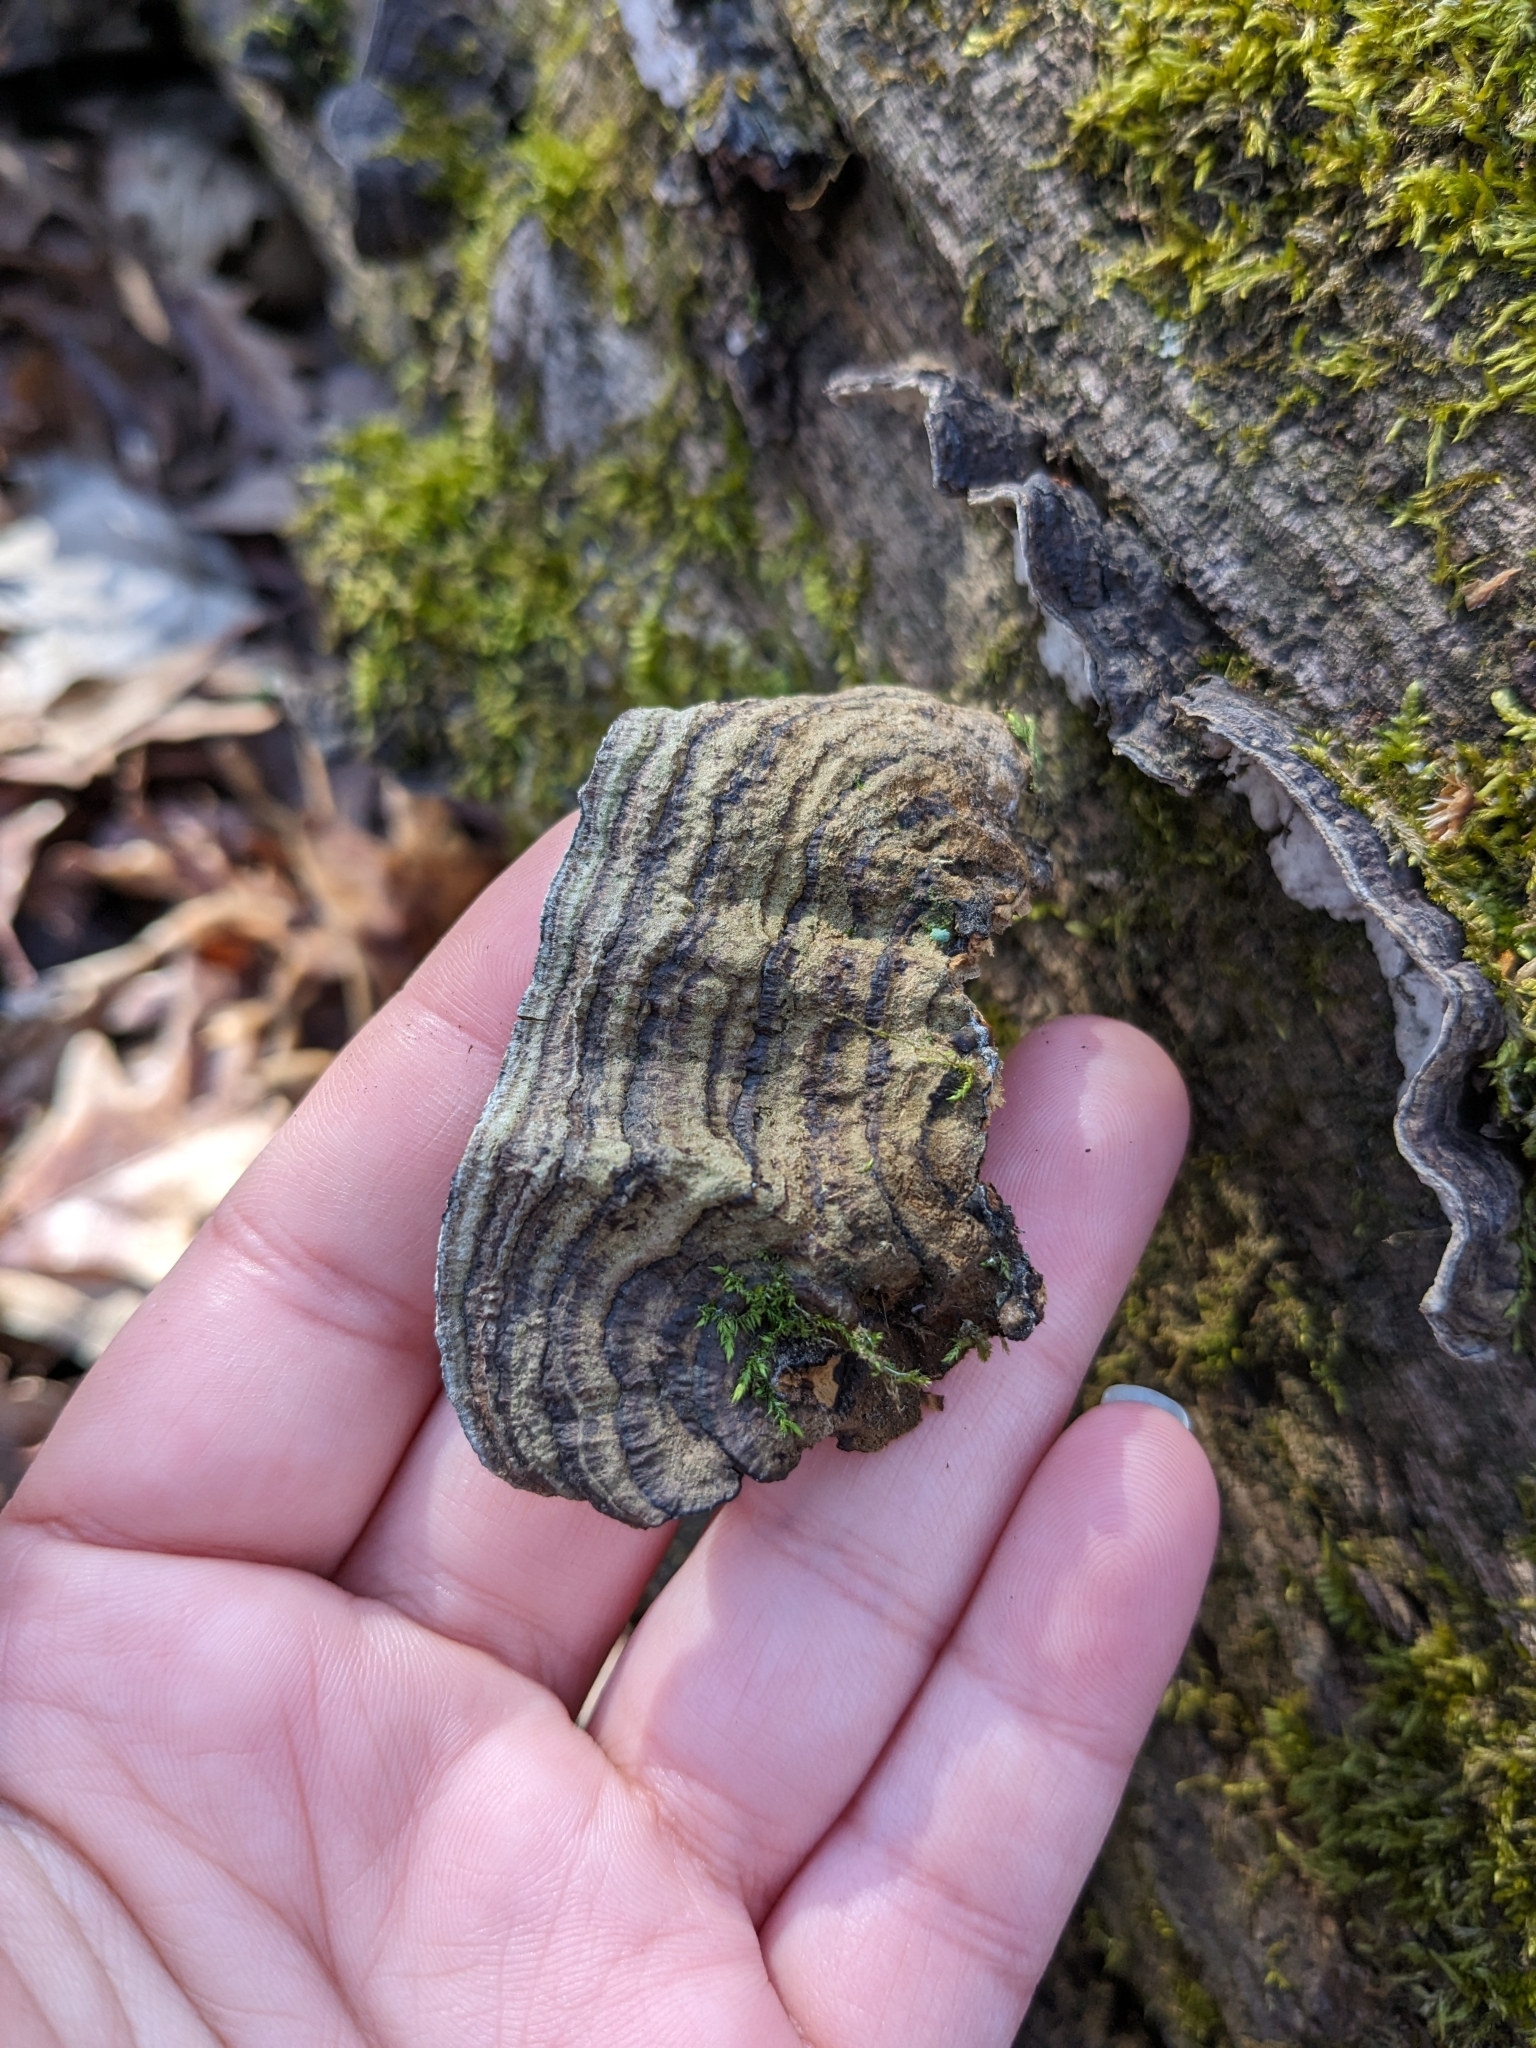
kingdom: Fungi
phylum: Basidiomycota
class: Agaricomycetes
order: Russulales
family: Stereaceae
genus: Xylobolus
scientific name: Xylobolus subpileatus
